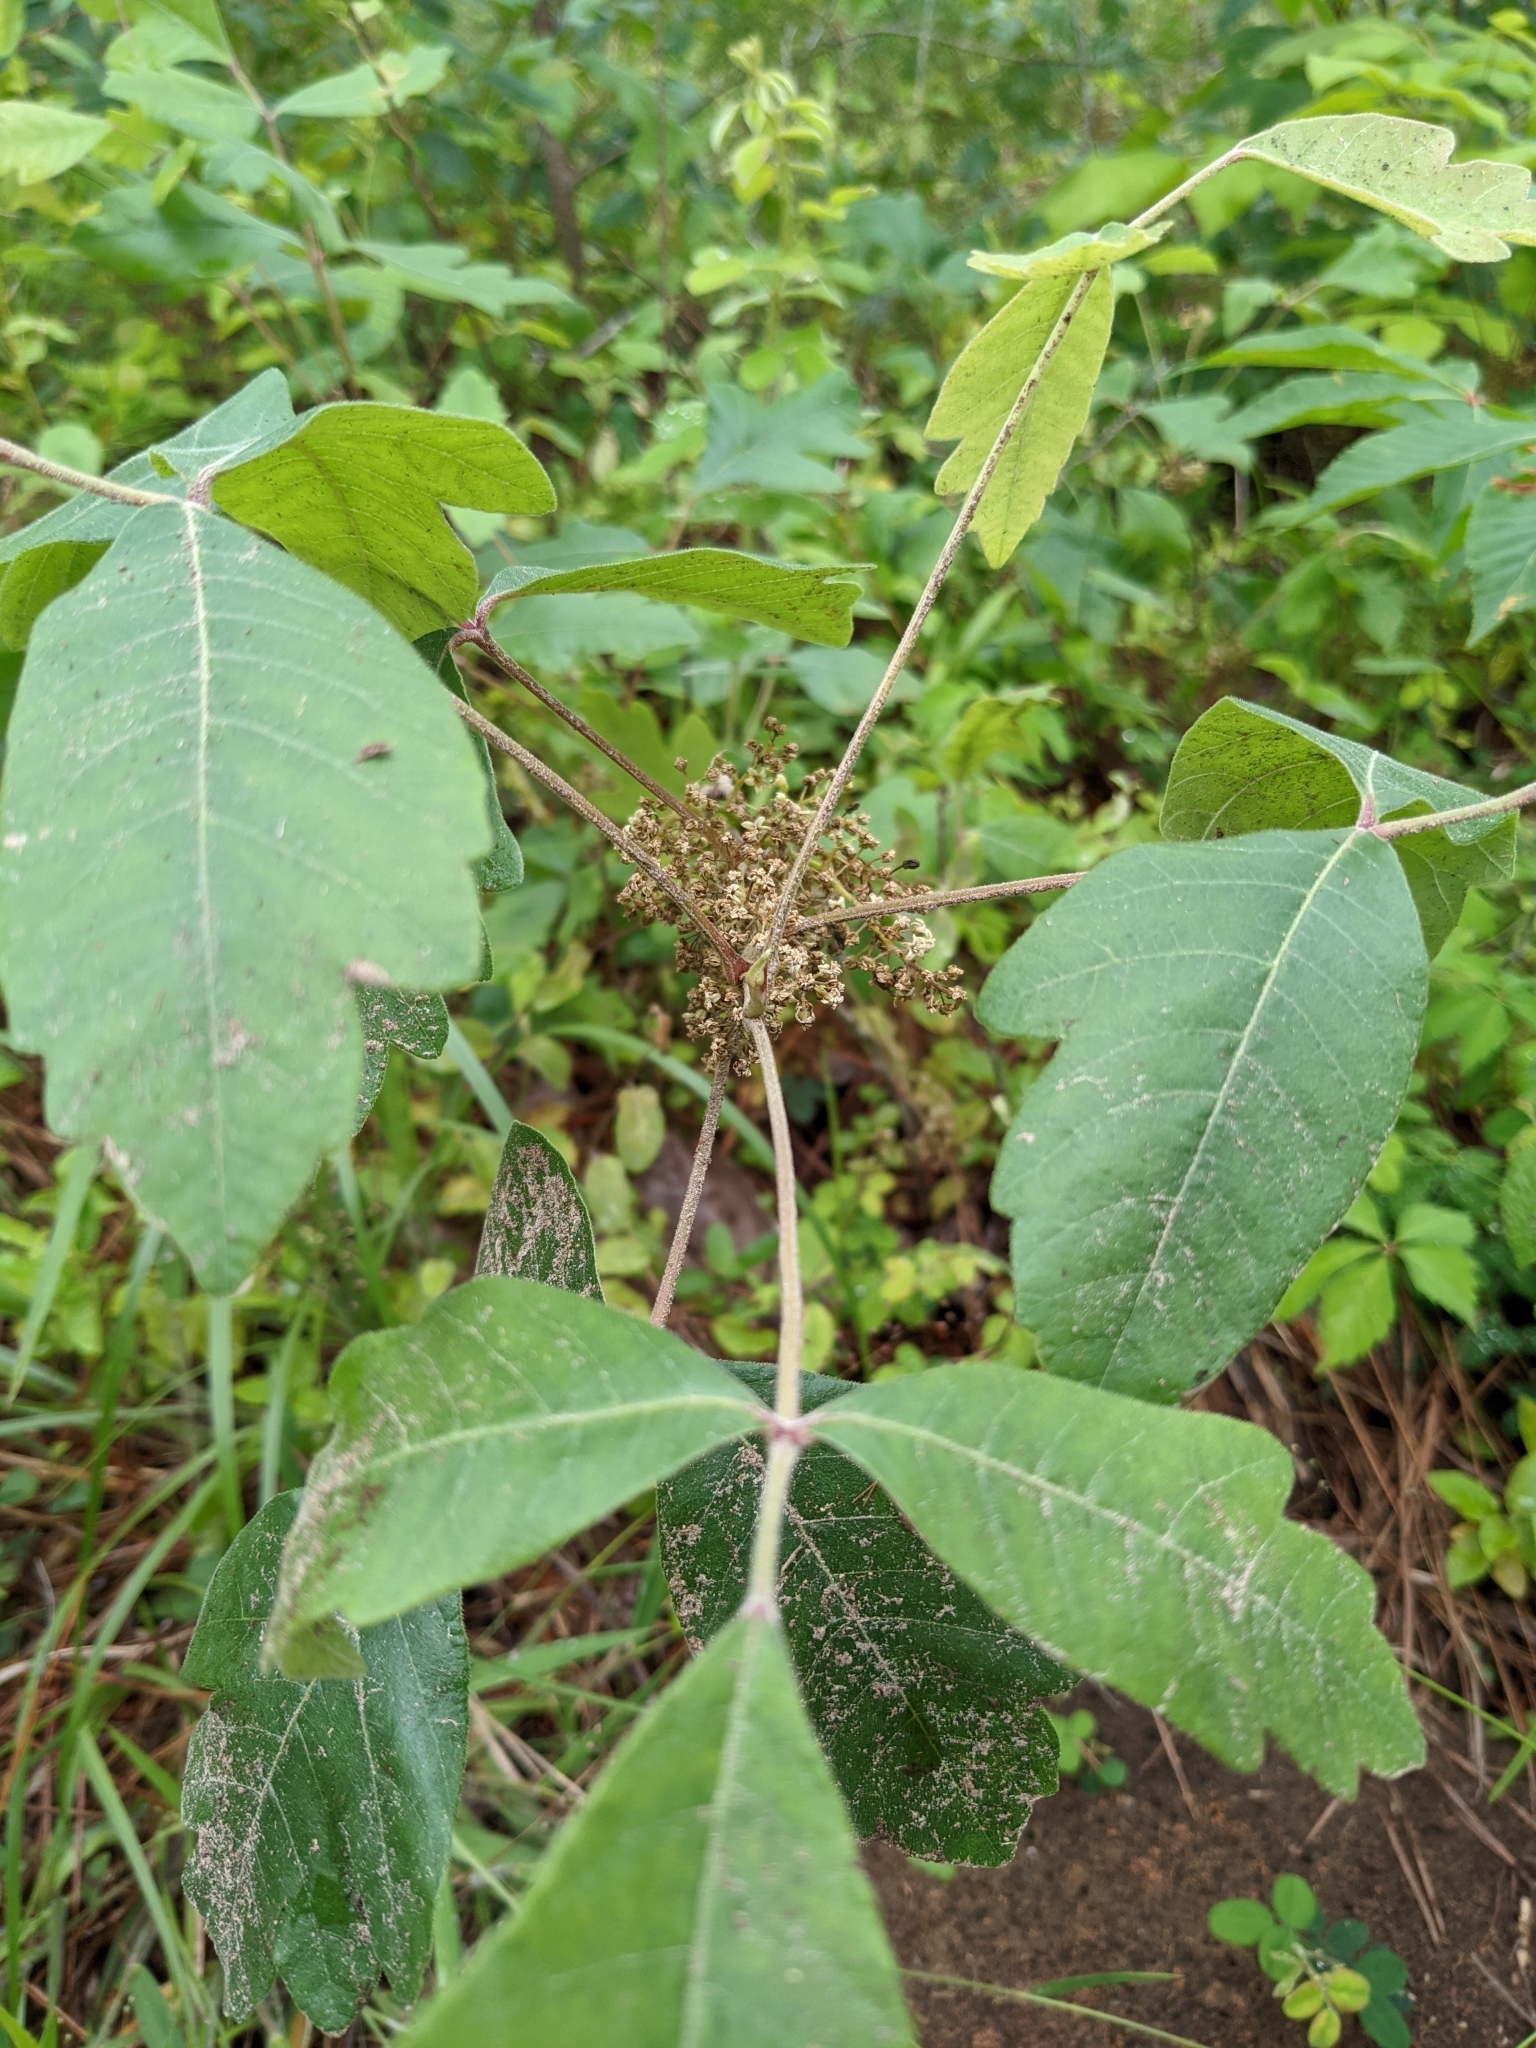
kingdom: Plantae
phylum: Tracheophyta
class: Magnoliopsida
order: Sapindales
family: Anacardiaceae
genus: Toxicodendron
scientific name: Toxicodendron pubescens
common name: Eastern poison-oak
